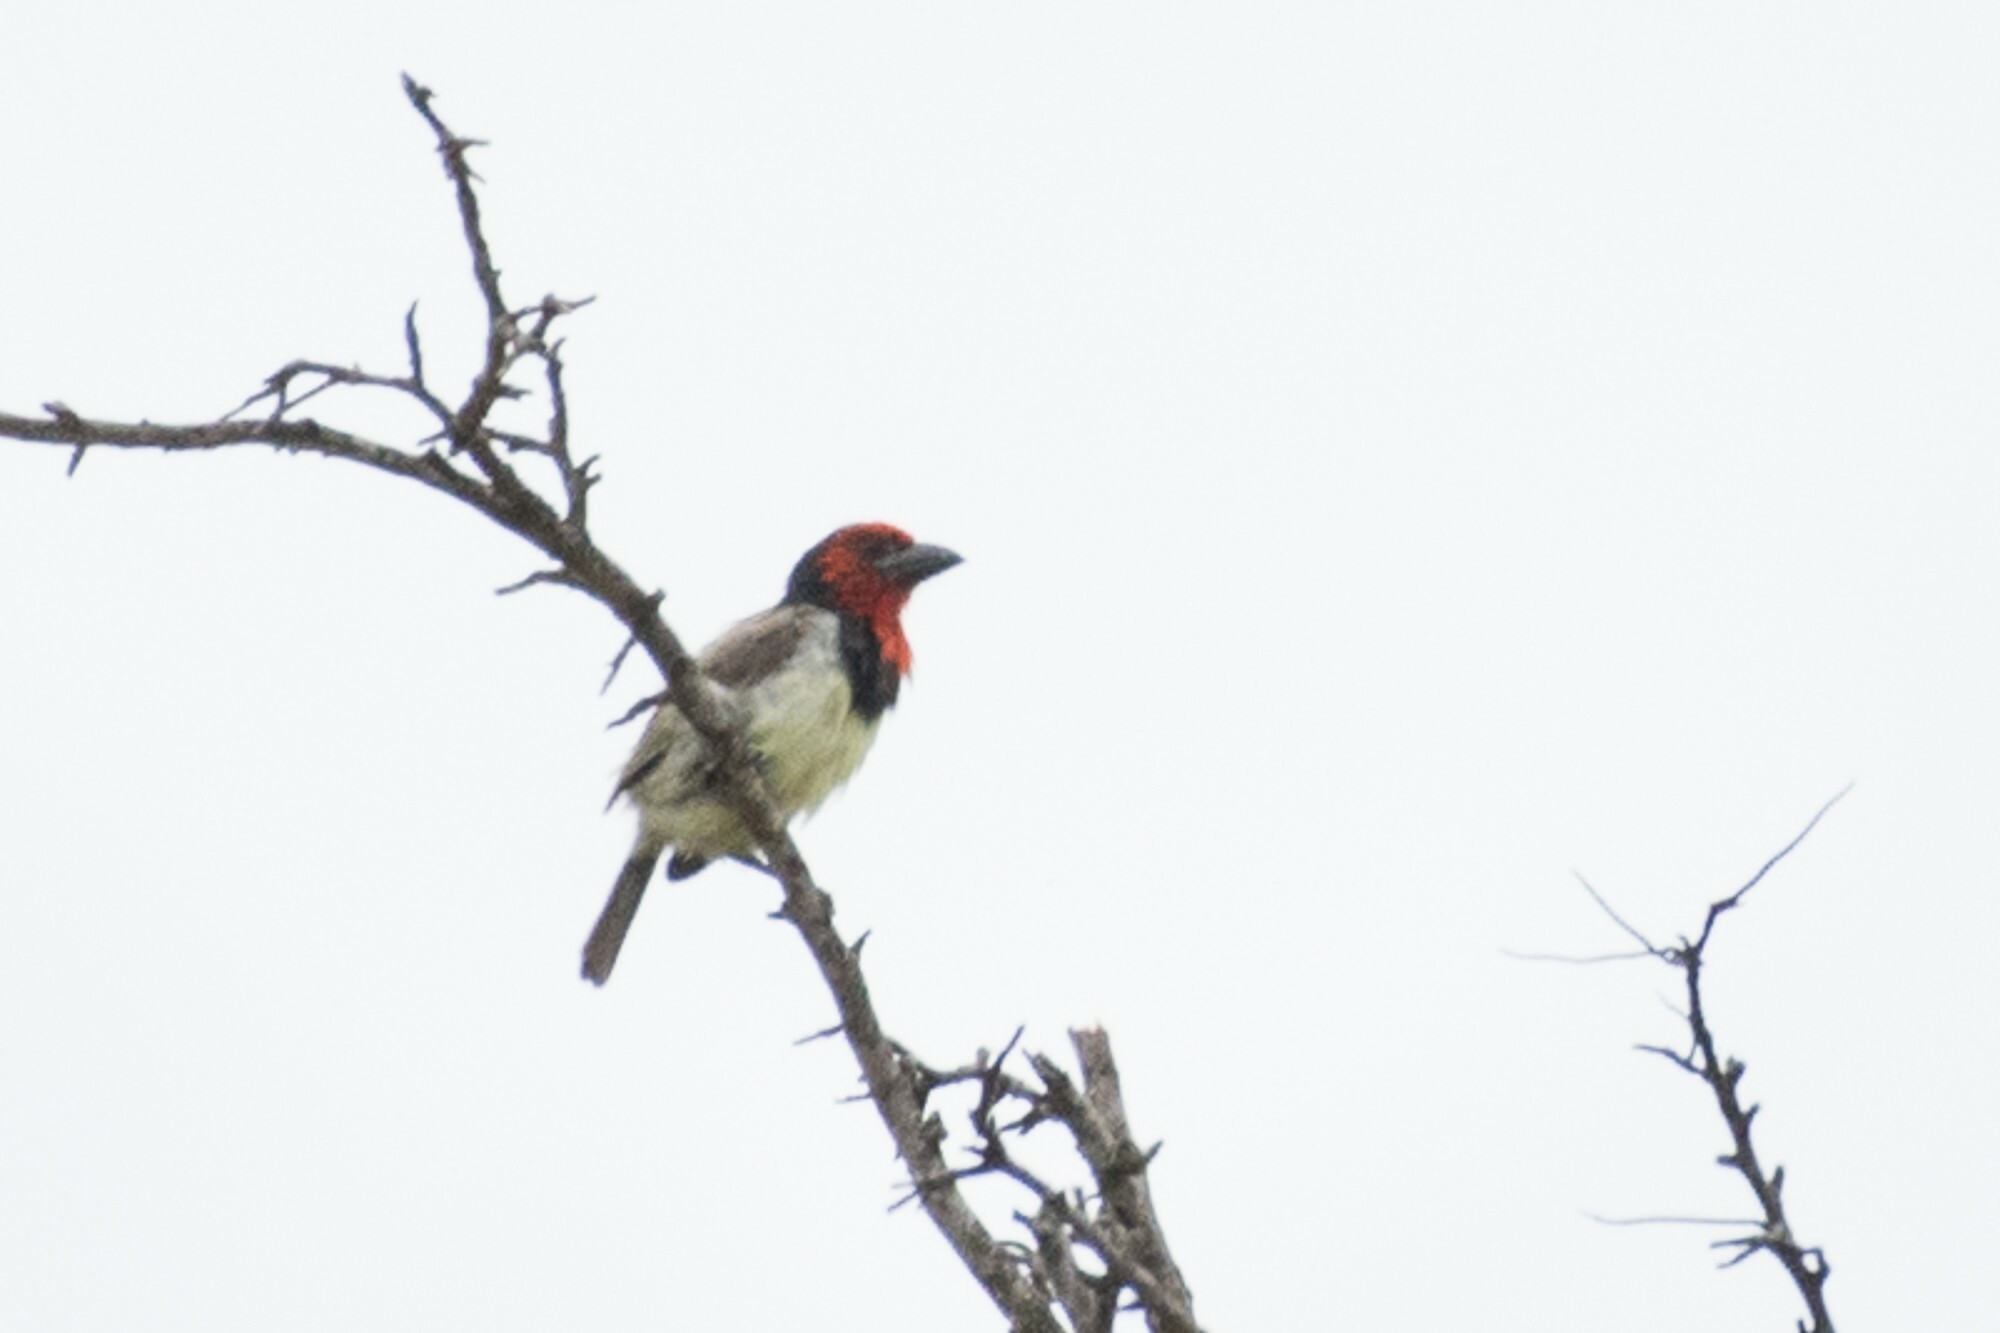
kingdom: Animalia
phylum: Chordata
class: Aves
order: Piciformes
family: Lybiidae
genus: Lybius
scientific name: Lybius torquatus
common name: Black-collared barbet
